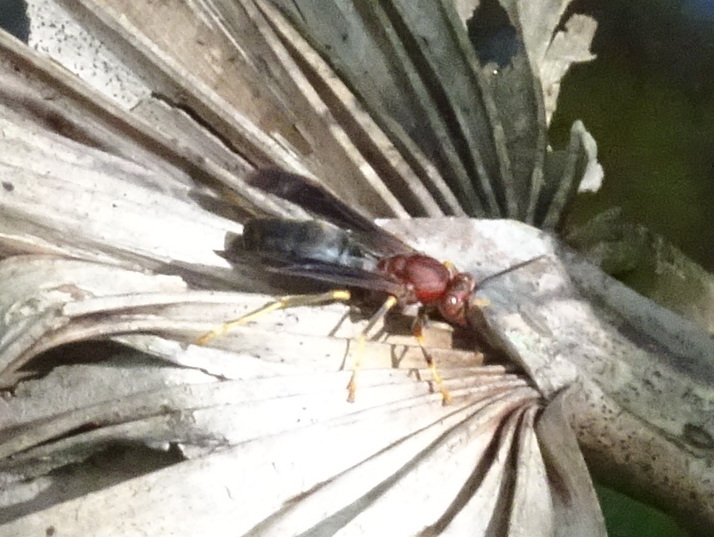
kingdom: Animalia
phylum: Arthropoda
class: Insecta
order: Hymenoptera
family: Eumenidae
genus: Polistes
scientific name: Polistes metricus
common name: Metric paper wasp
